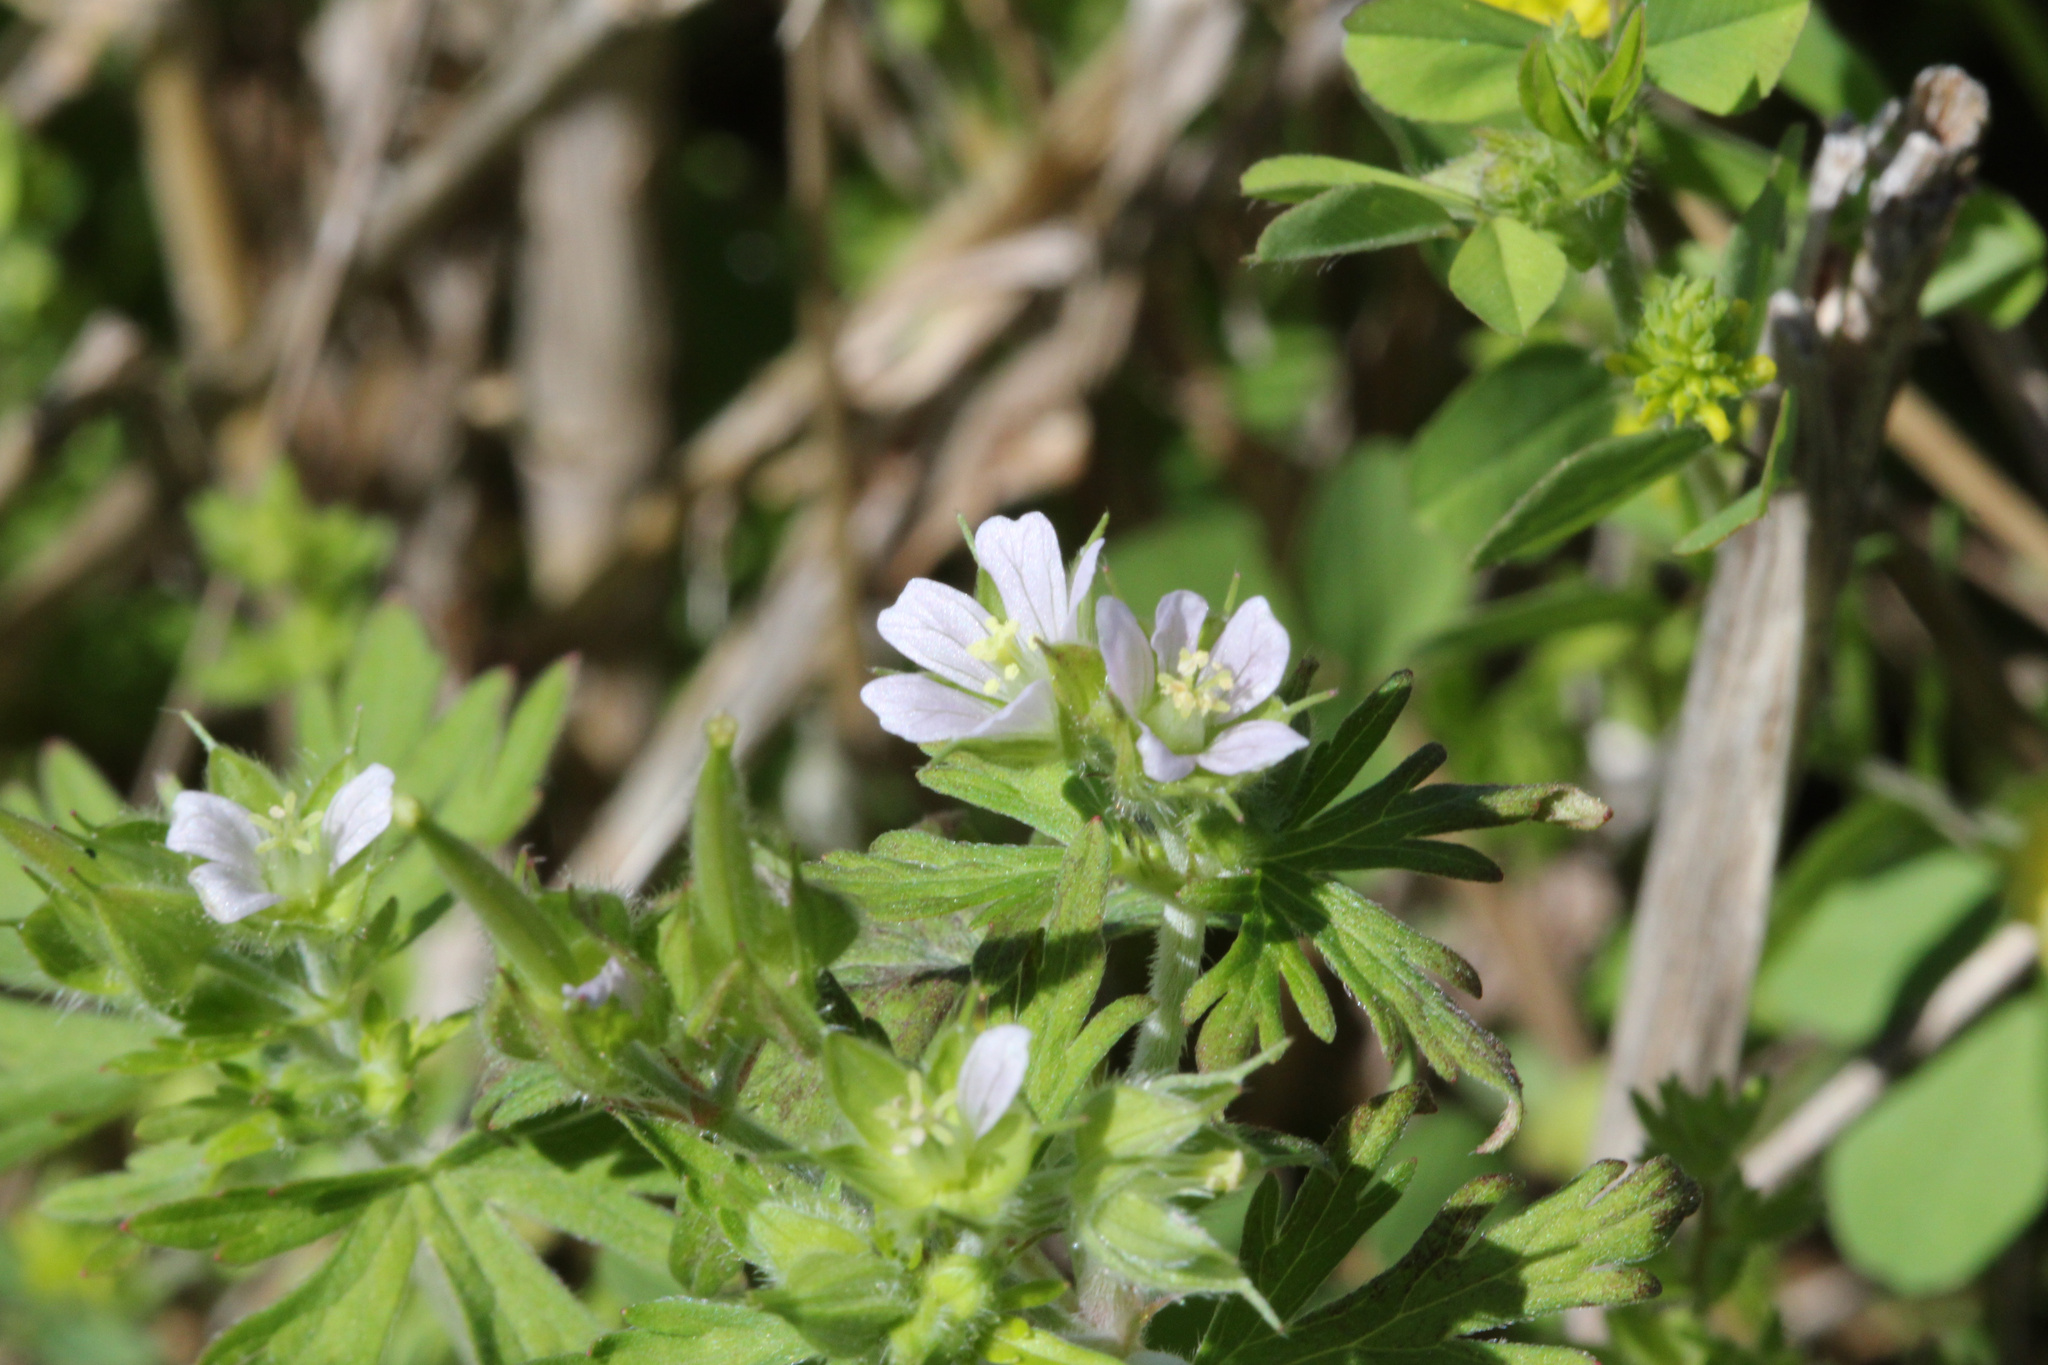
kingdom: Plantae
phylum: Tracheophyta
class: Magnoliopsida
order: Geraniales
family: Geraniaceae
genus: Geranium
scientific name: Geranium carolinianum
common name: Carolina crane's-bill
